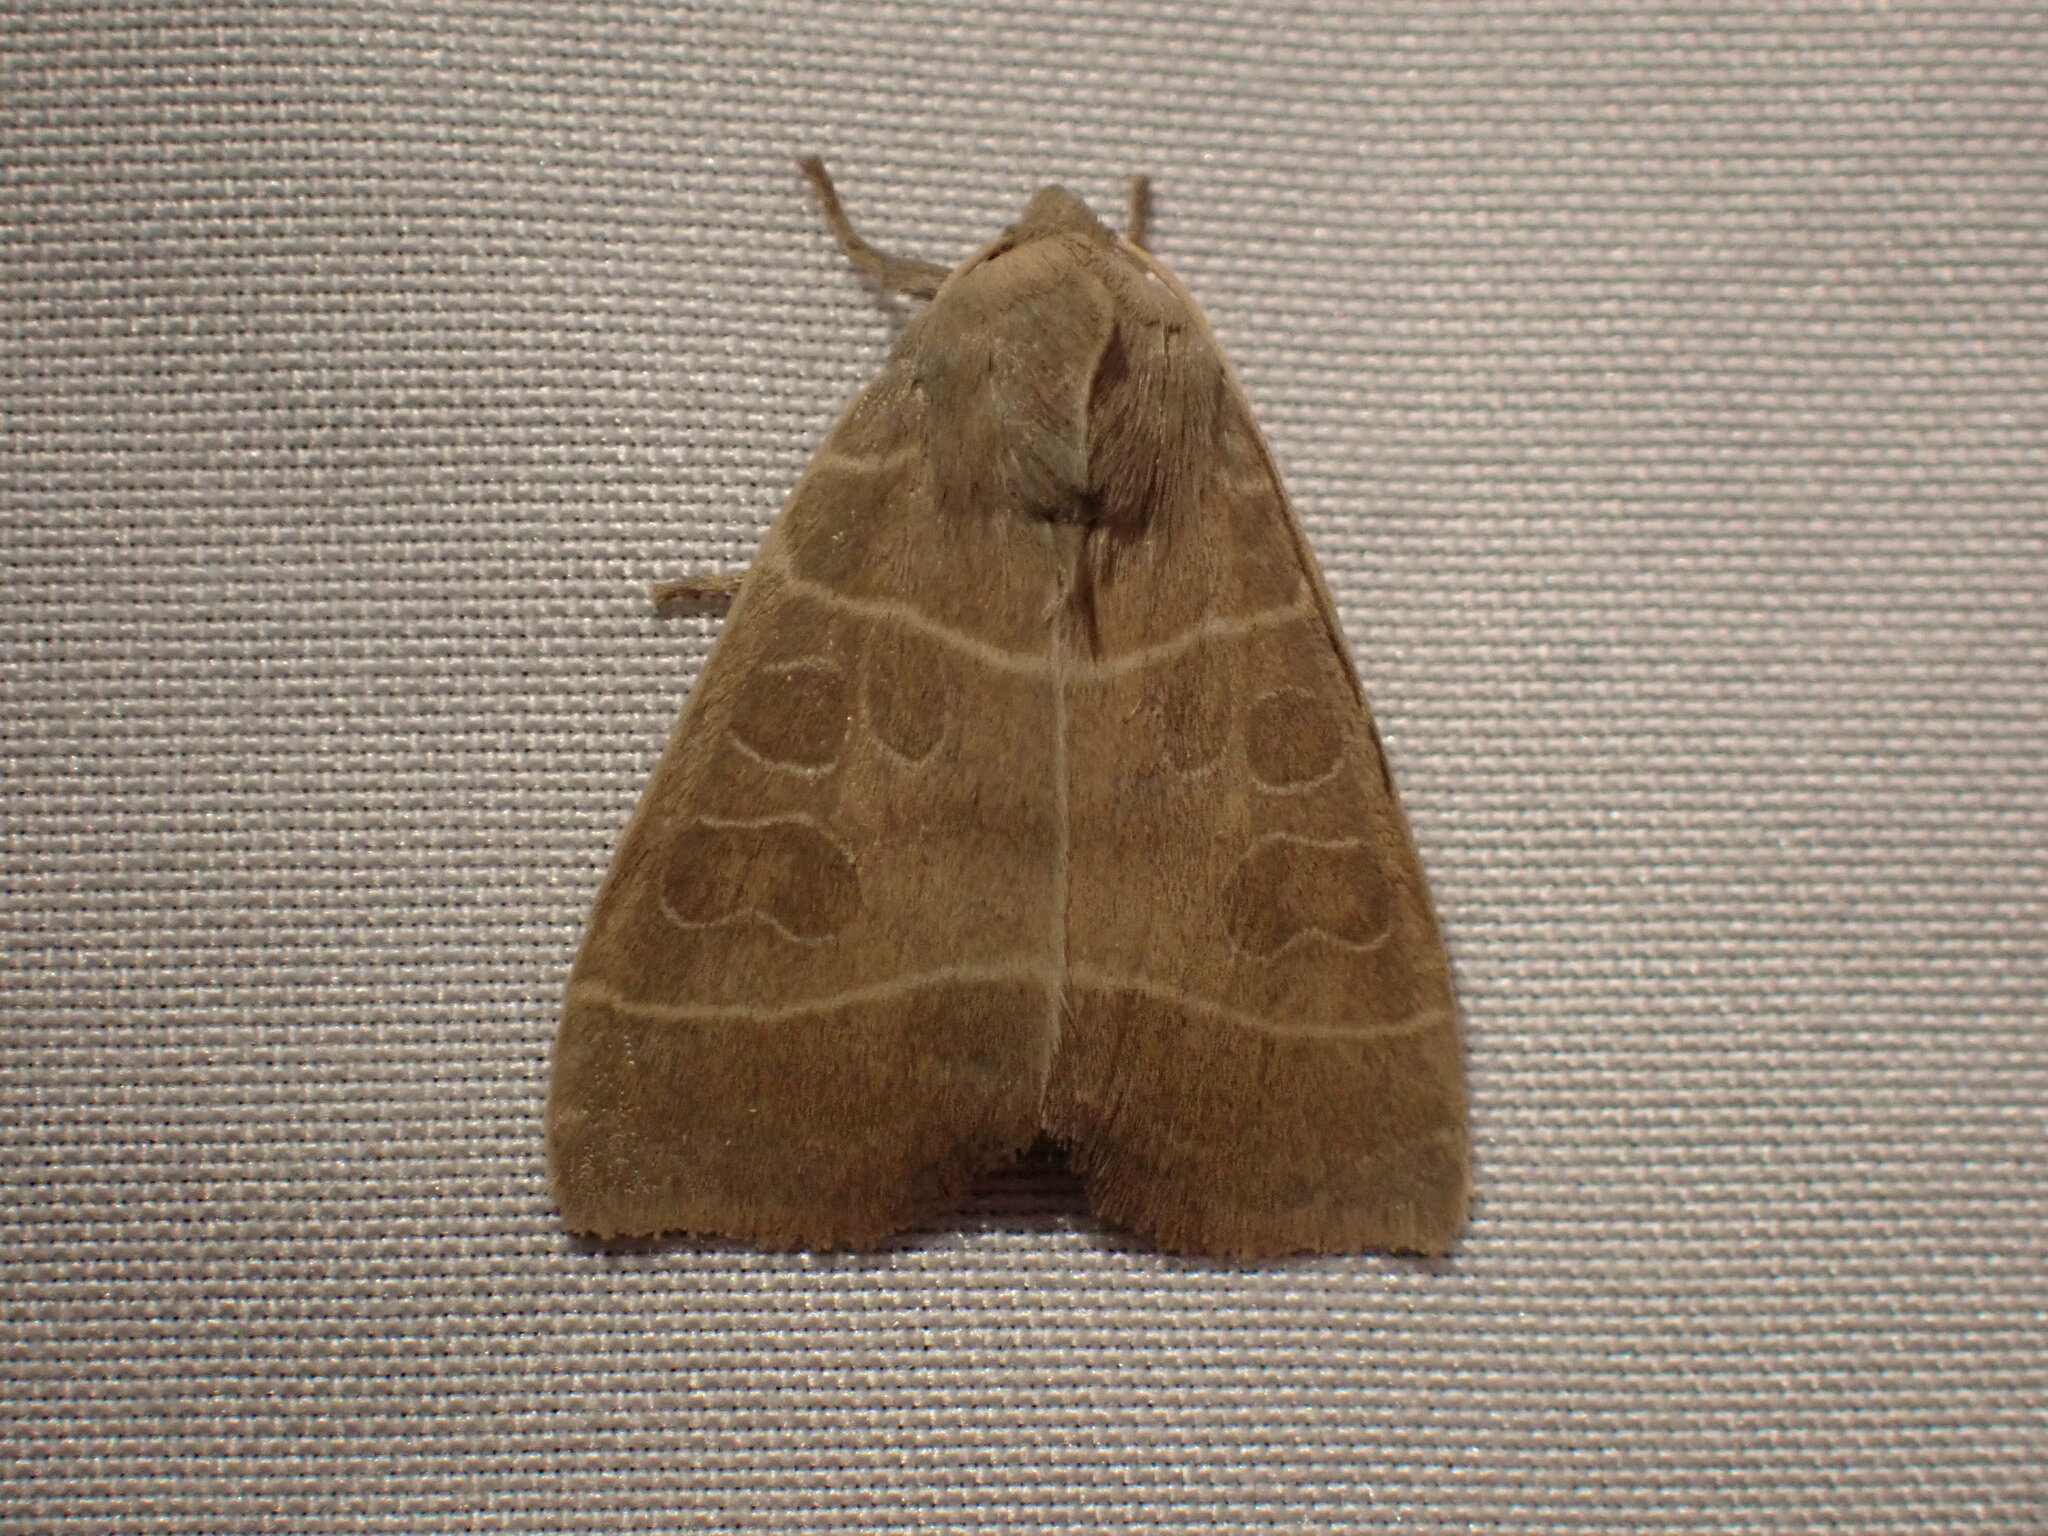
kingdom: Animalia
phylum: Arthropoda
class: Insecta
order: Lepidoptera
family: Noctuidae
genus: Ipimorpha
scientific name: Ipimorpha pleonectusa
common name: Even-lined sallow
